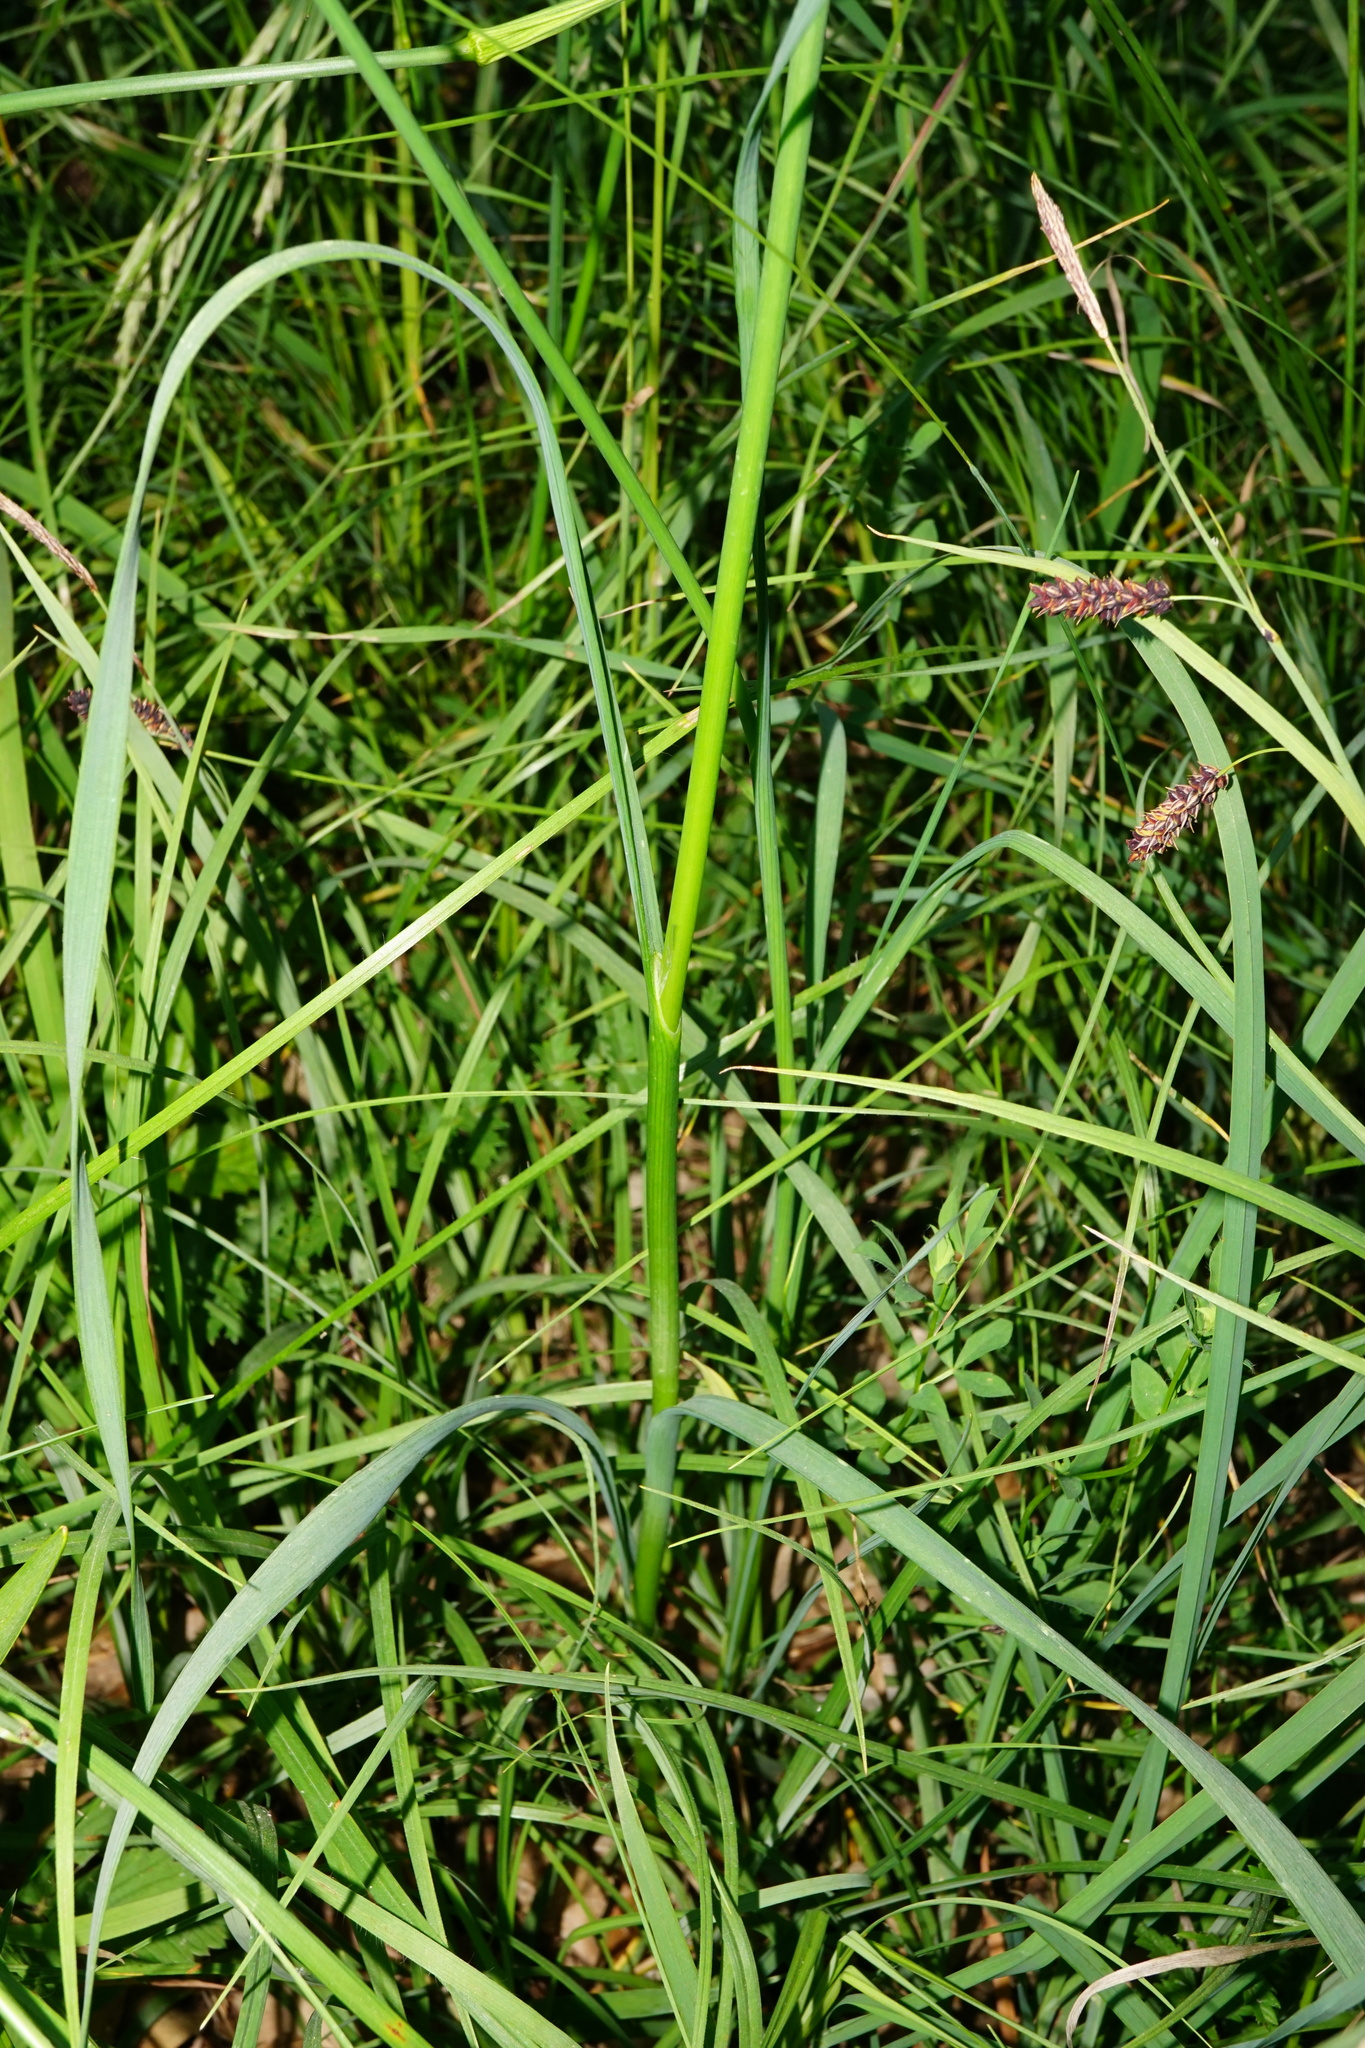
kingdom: Plantae
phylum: Tracheophyta
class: Liliopsida
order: Asparagales
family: Amaryllidaceae
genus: Allium
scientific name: Allium carinatum
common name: Keeled garlic
